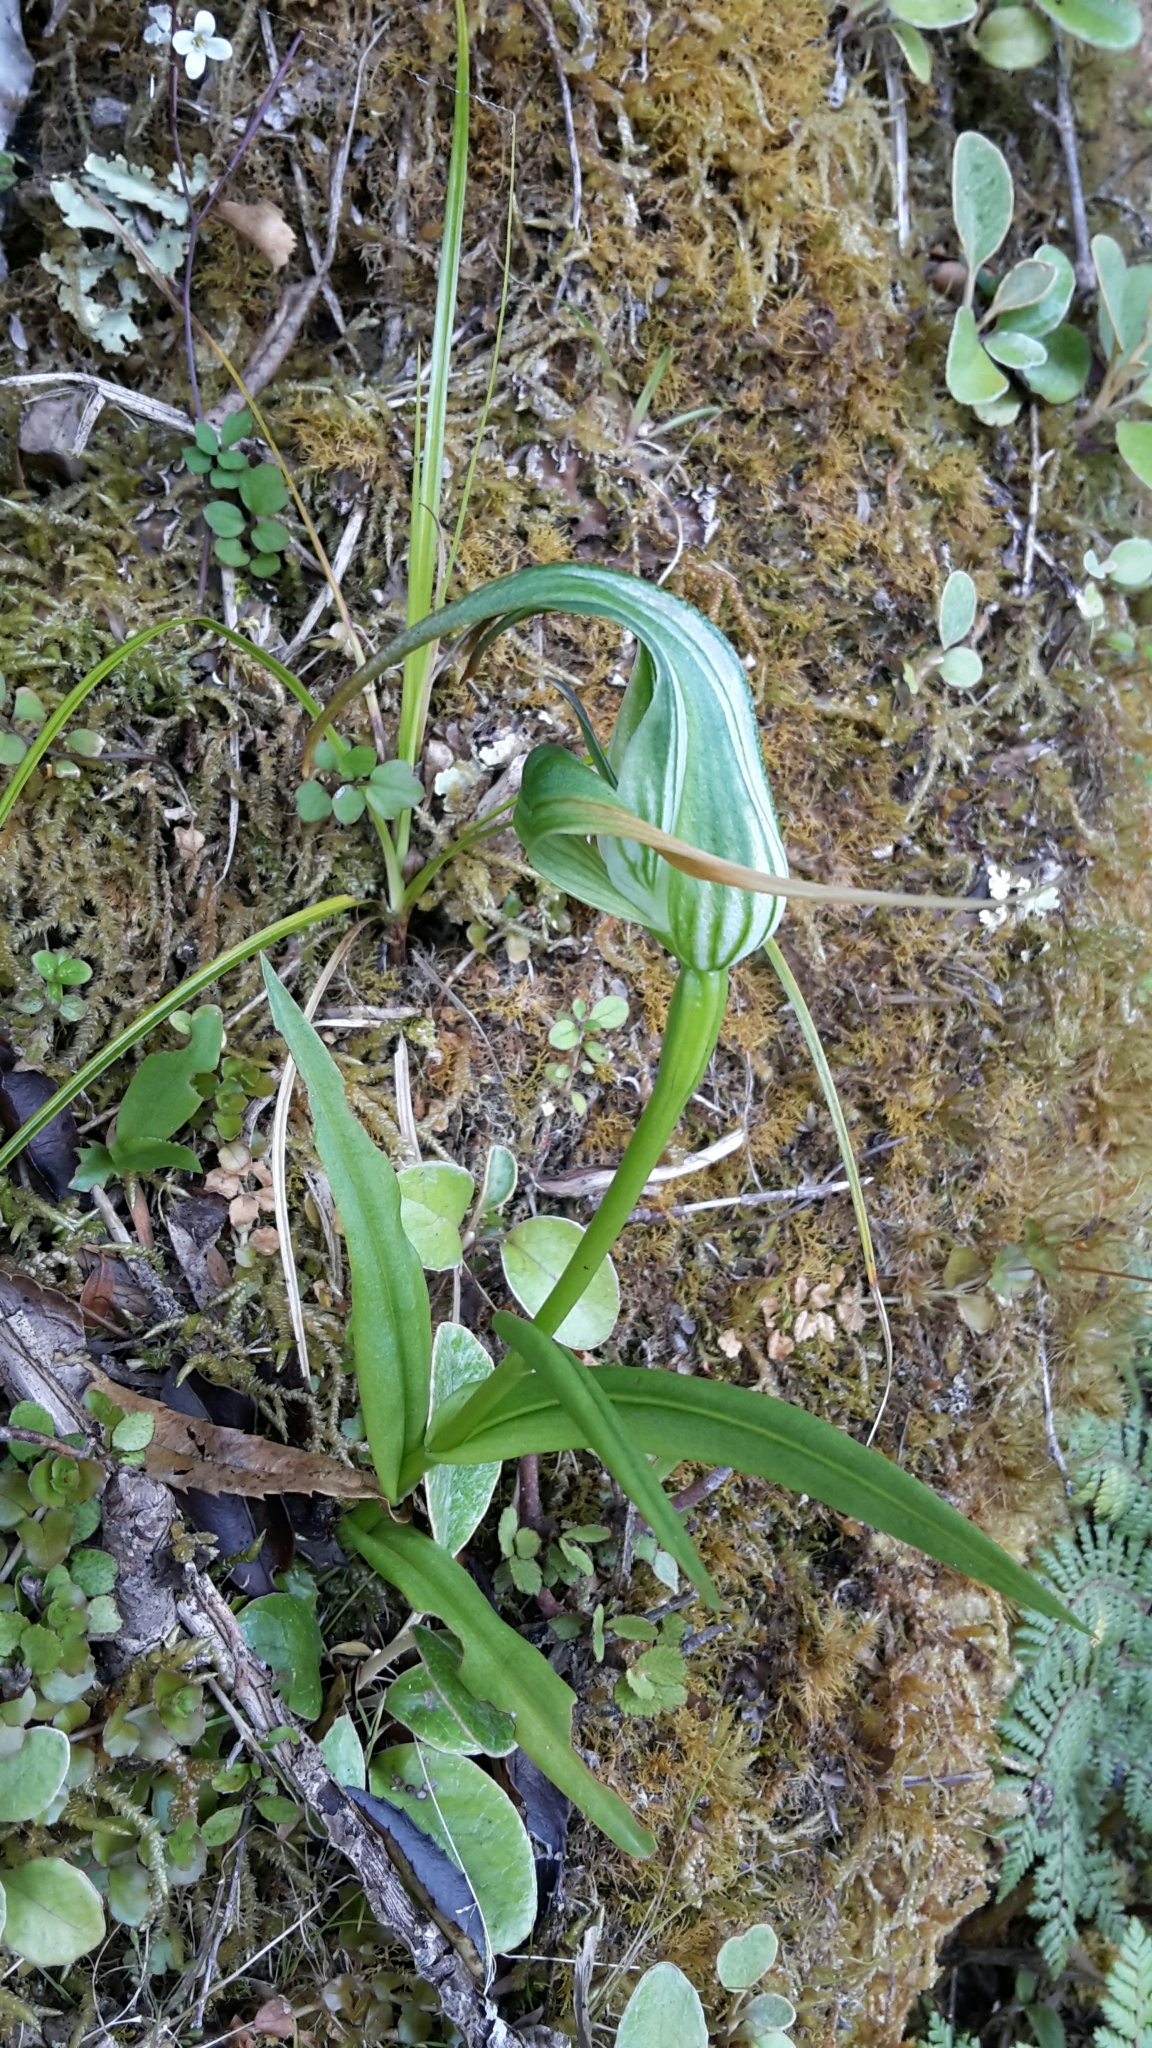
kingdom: Plantae
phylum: Tracheophyta
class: Liliopsida
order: Asparagales
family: Orchidaceae
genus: Pterostylis
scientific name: Pterostylis patens
